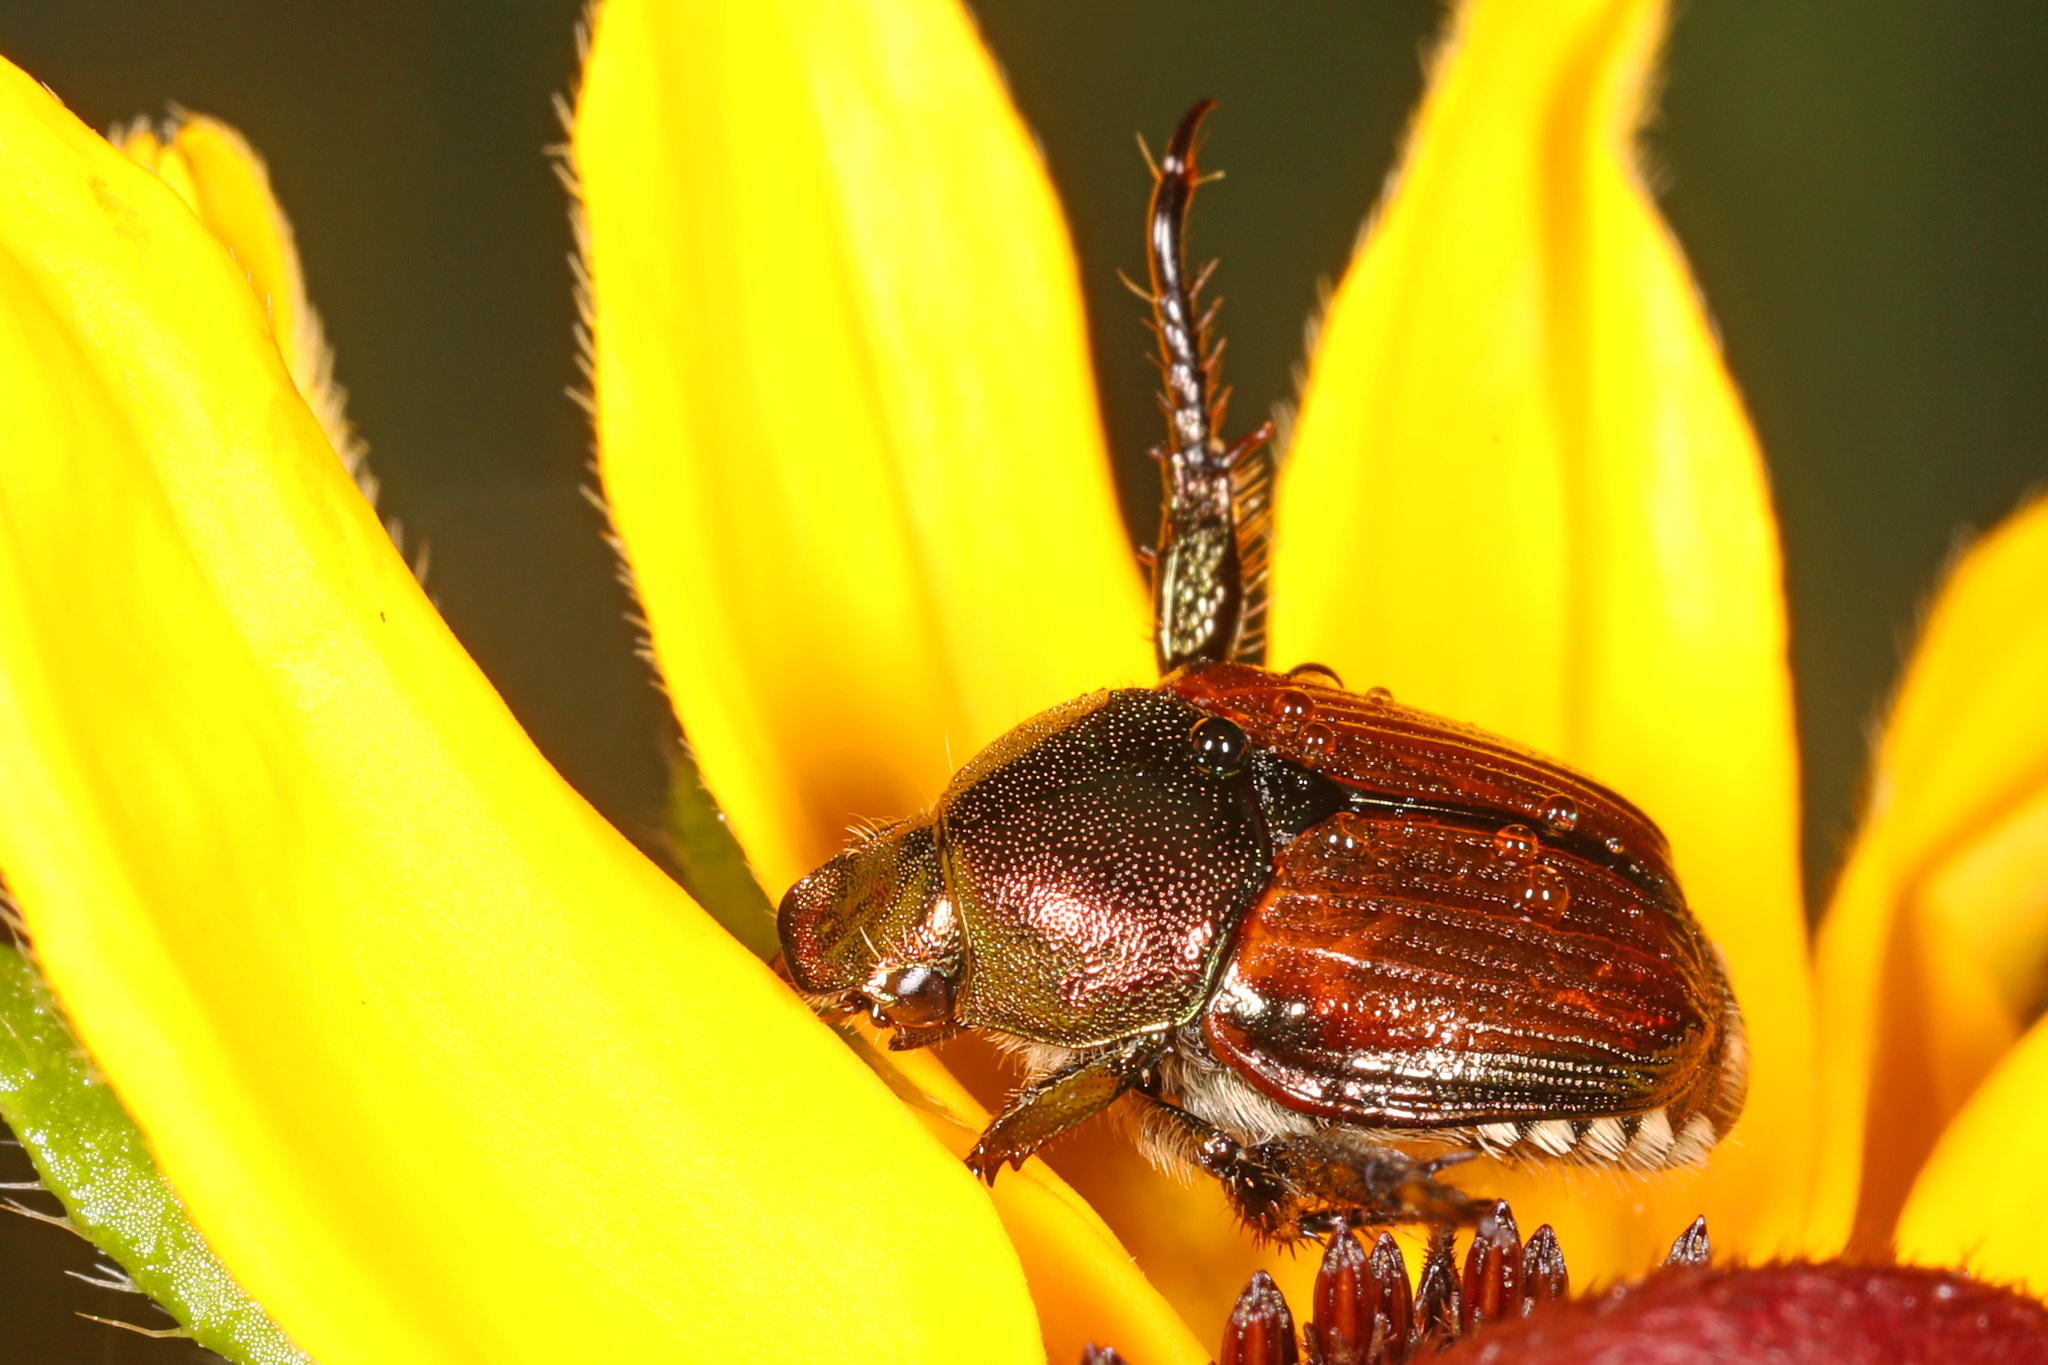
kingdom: Animalia
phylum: Arthropoda
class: Insecta
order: Coleoptera
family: Scarabaeidae
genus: Popillia
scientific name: Popillia japonica
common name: Japanese beetle
